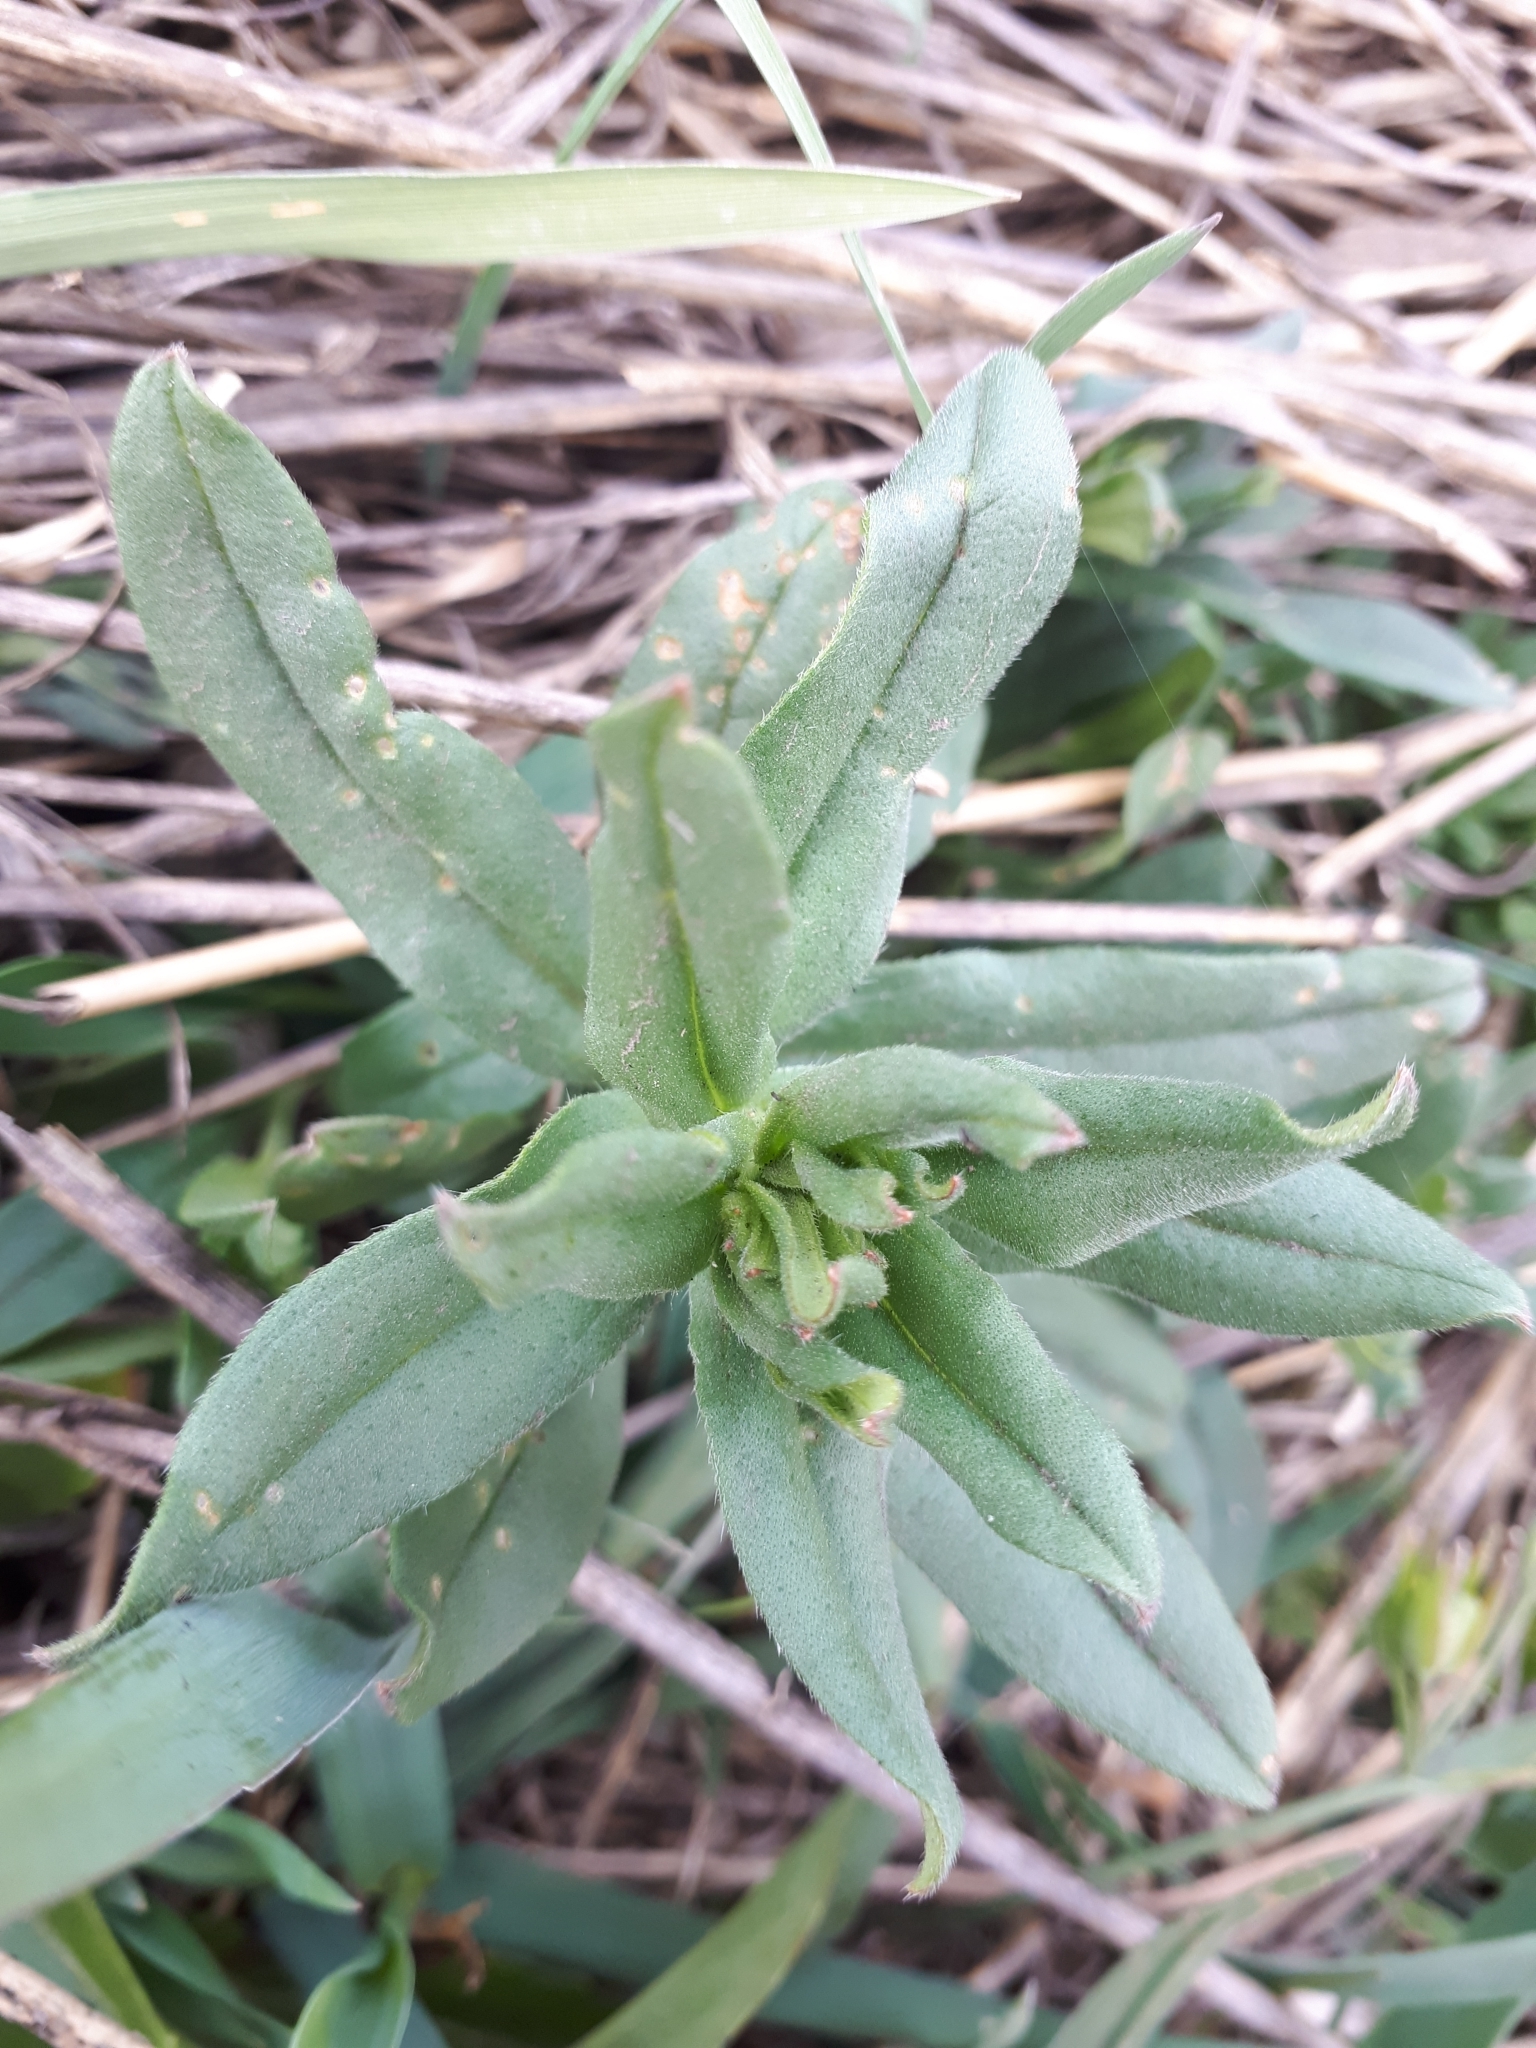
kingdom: Plantae
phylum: Tracheophyta
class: Magnoliopsida
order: Boraginales
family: Boraginaceae
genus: Buglossoides
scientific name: Buglossoides arvensis
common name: Corn gromwell
